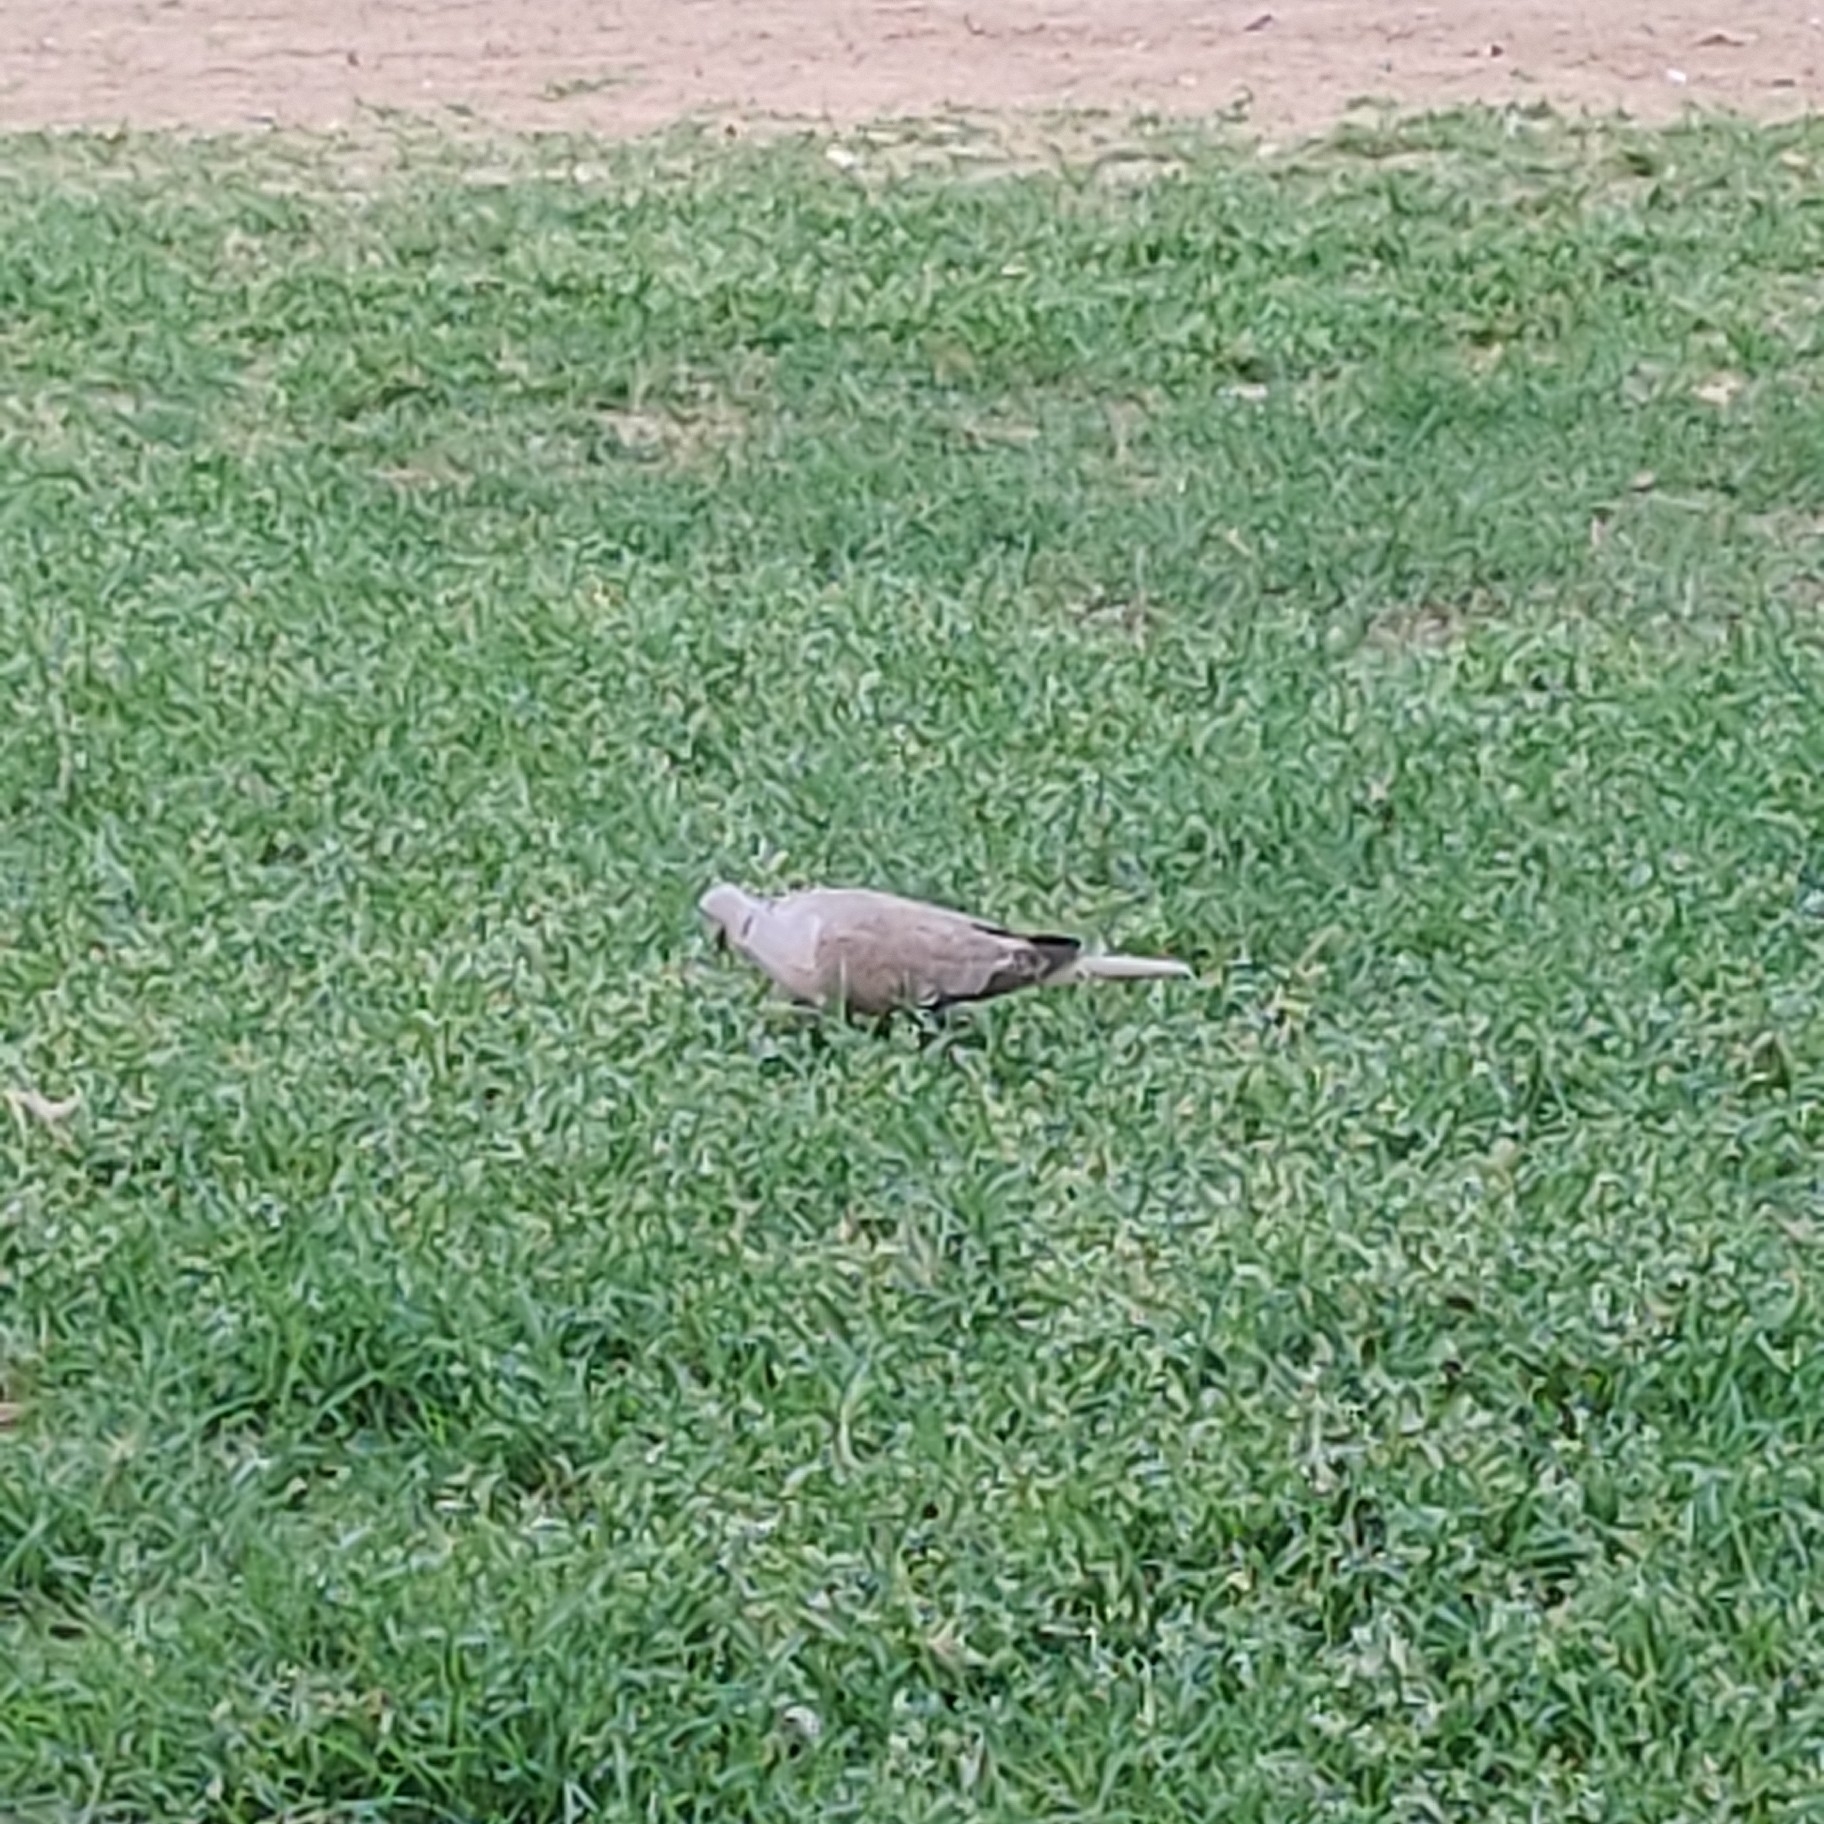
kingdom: Animalia
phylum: Chordata
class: Aves
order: Columbiformes
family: Columbidae
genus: Streptopelia
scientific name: Streptopelia decaocto
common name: Eurasian collared dove
